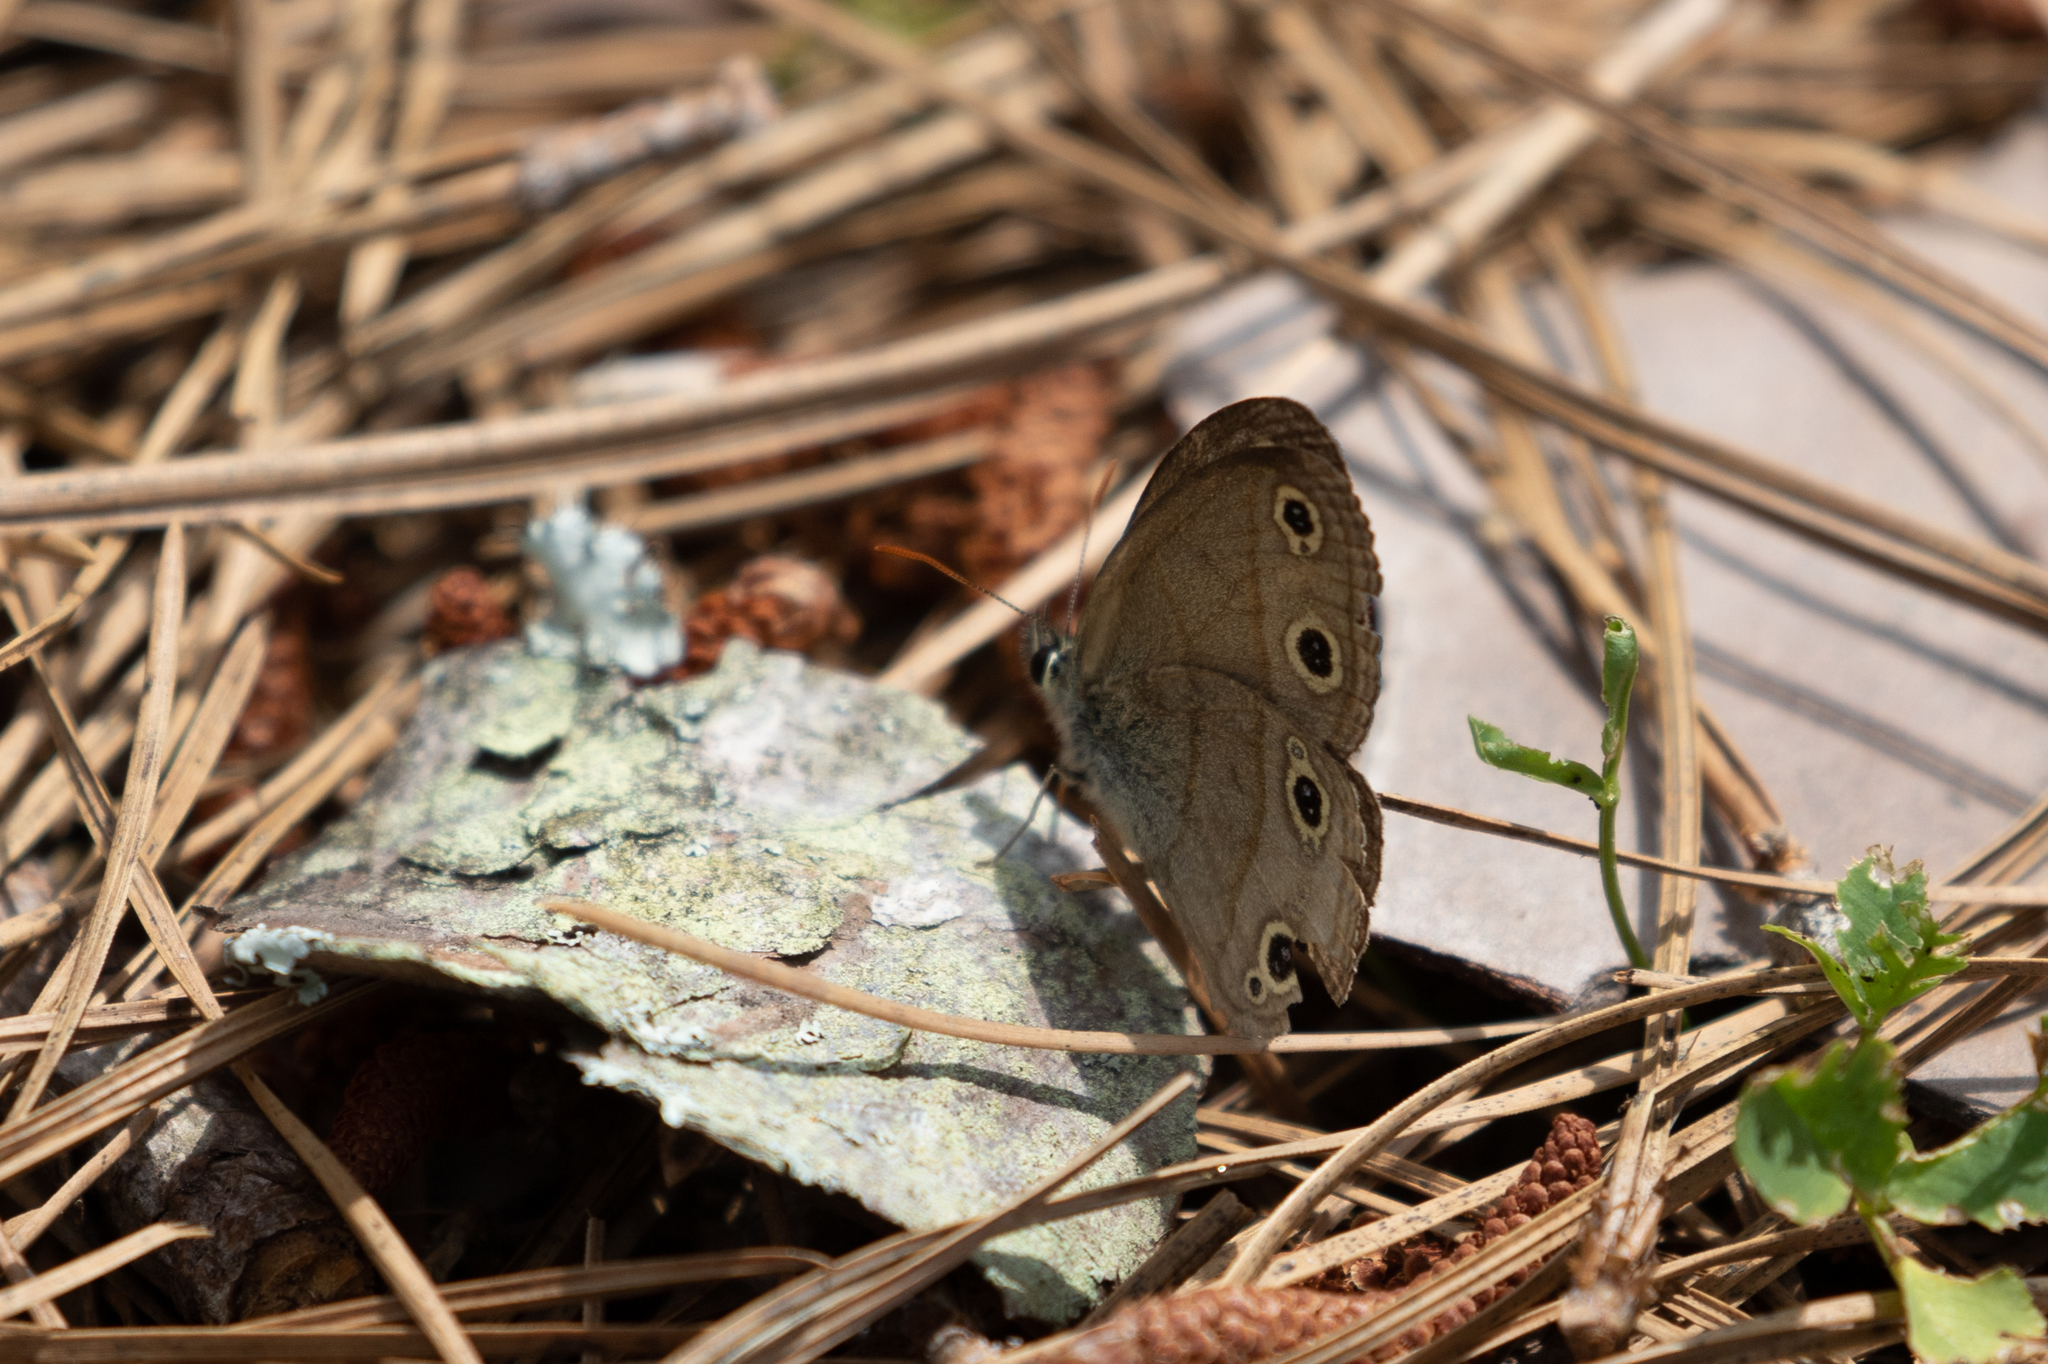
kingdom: Animalia
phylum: Arthropoda
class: Insecta
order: Lepidoptera
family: Nymphalidae
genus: Euptychia
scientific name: Euptychia cymela
